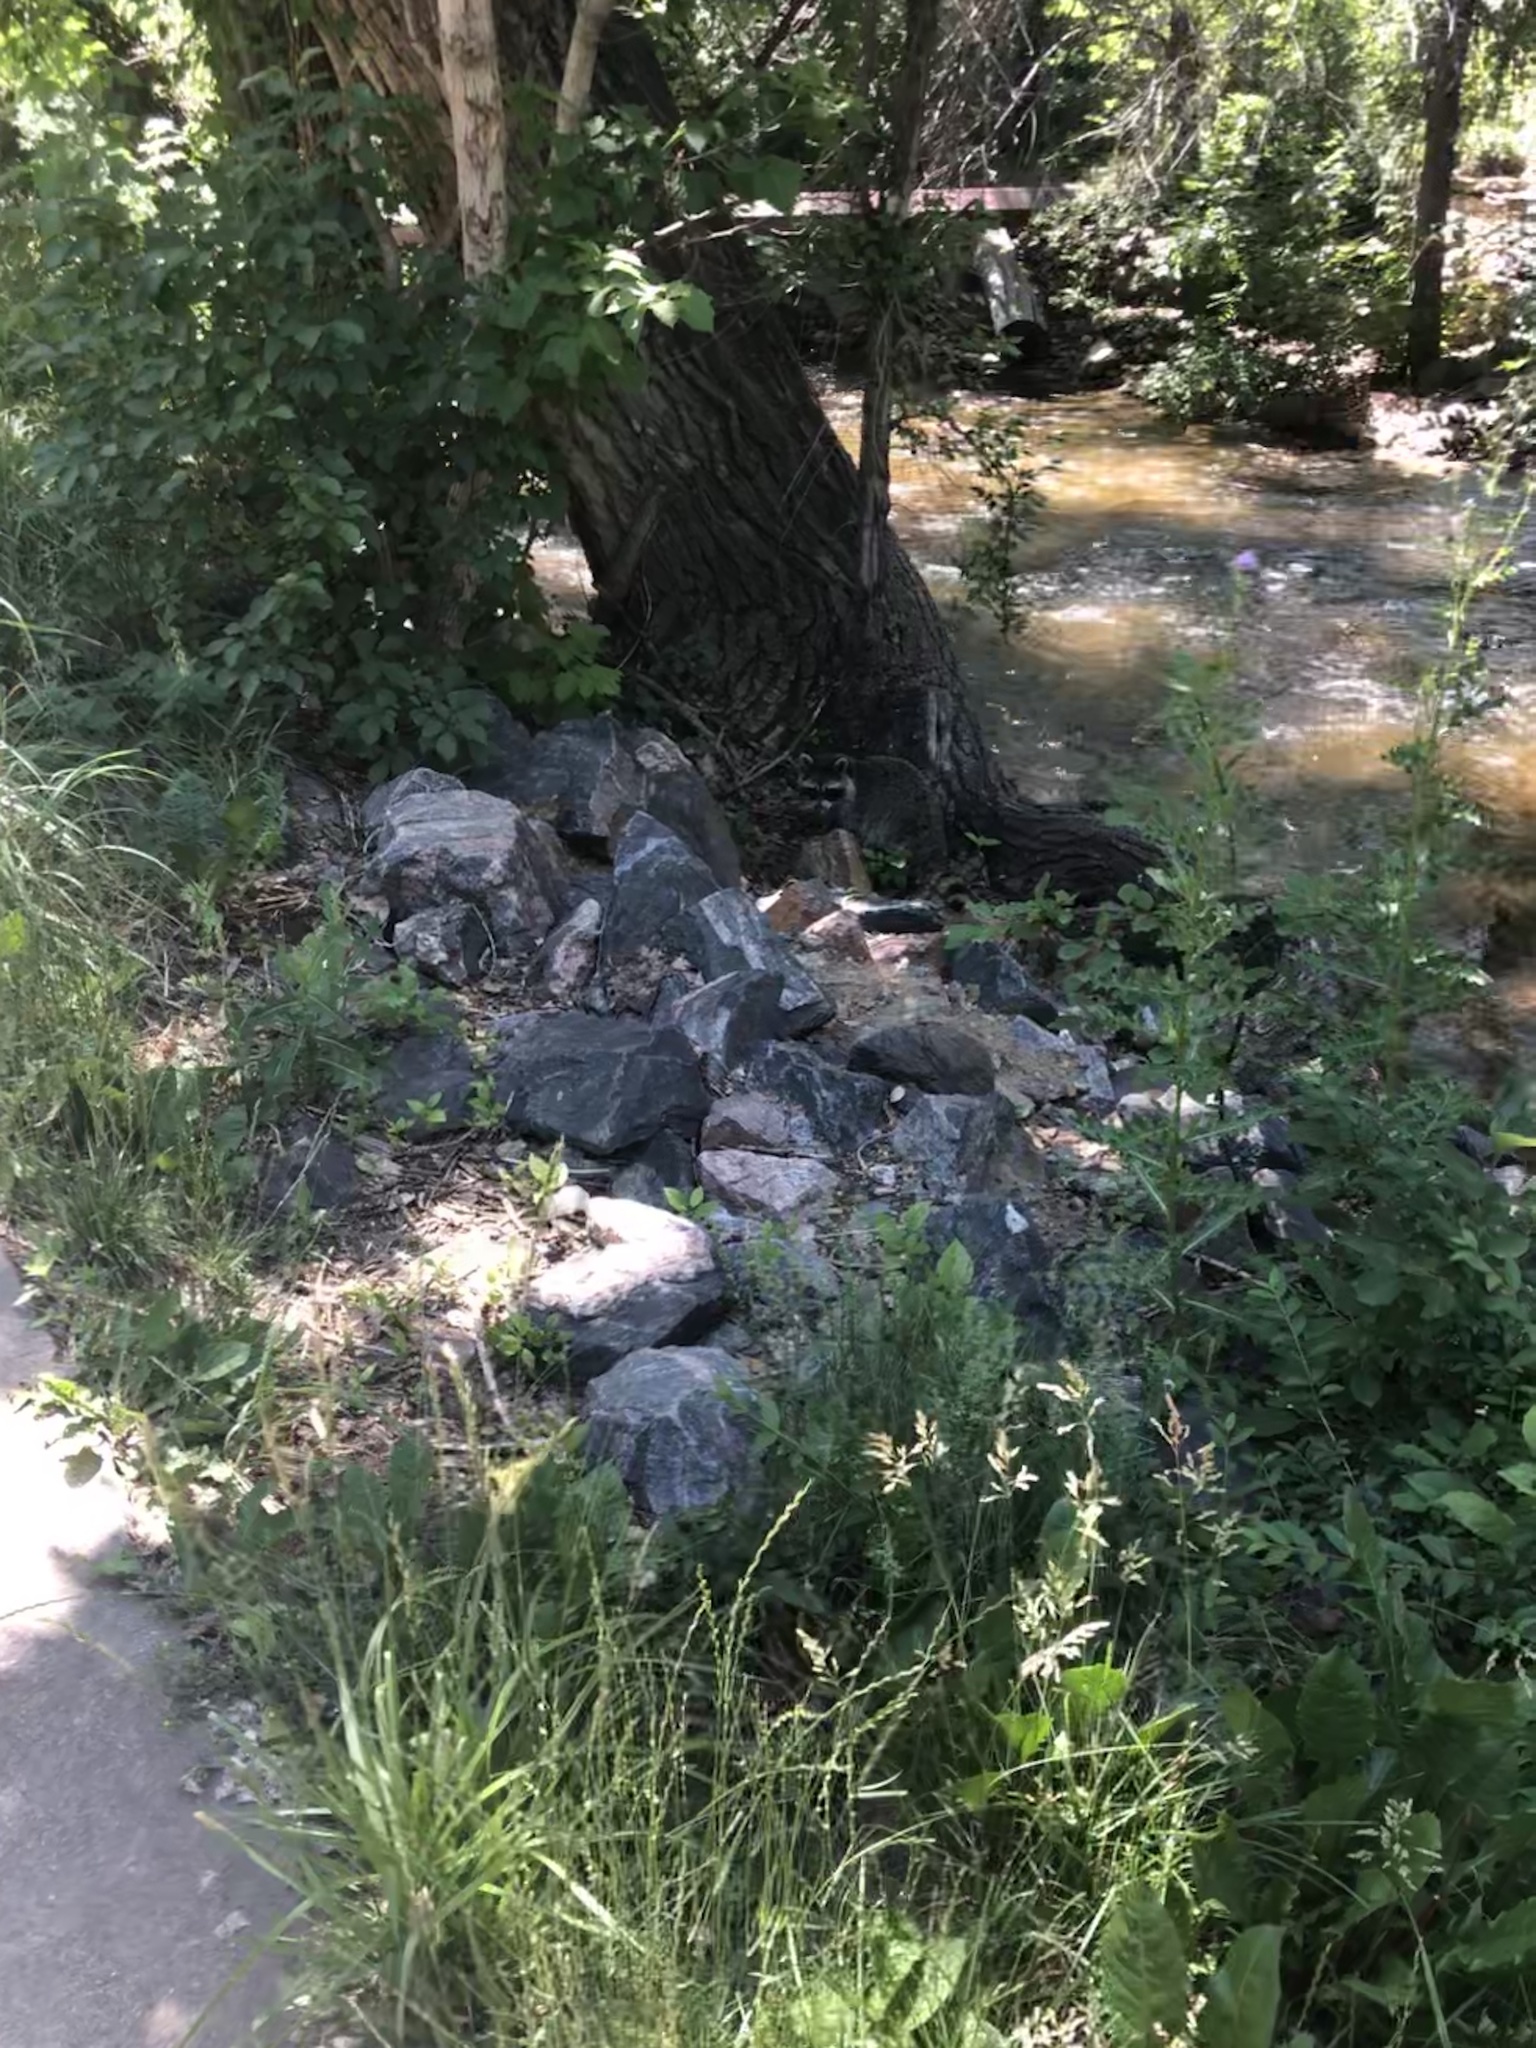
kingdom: Animalia
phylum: Chordata
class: Mammalia
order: Carnivora
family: Procyonidae
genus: Procyon
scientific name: Procyon lotor
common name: Raccoon
